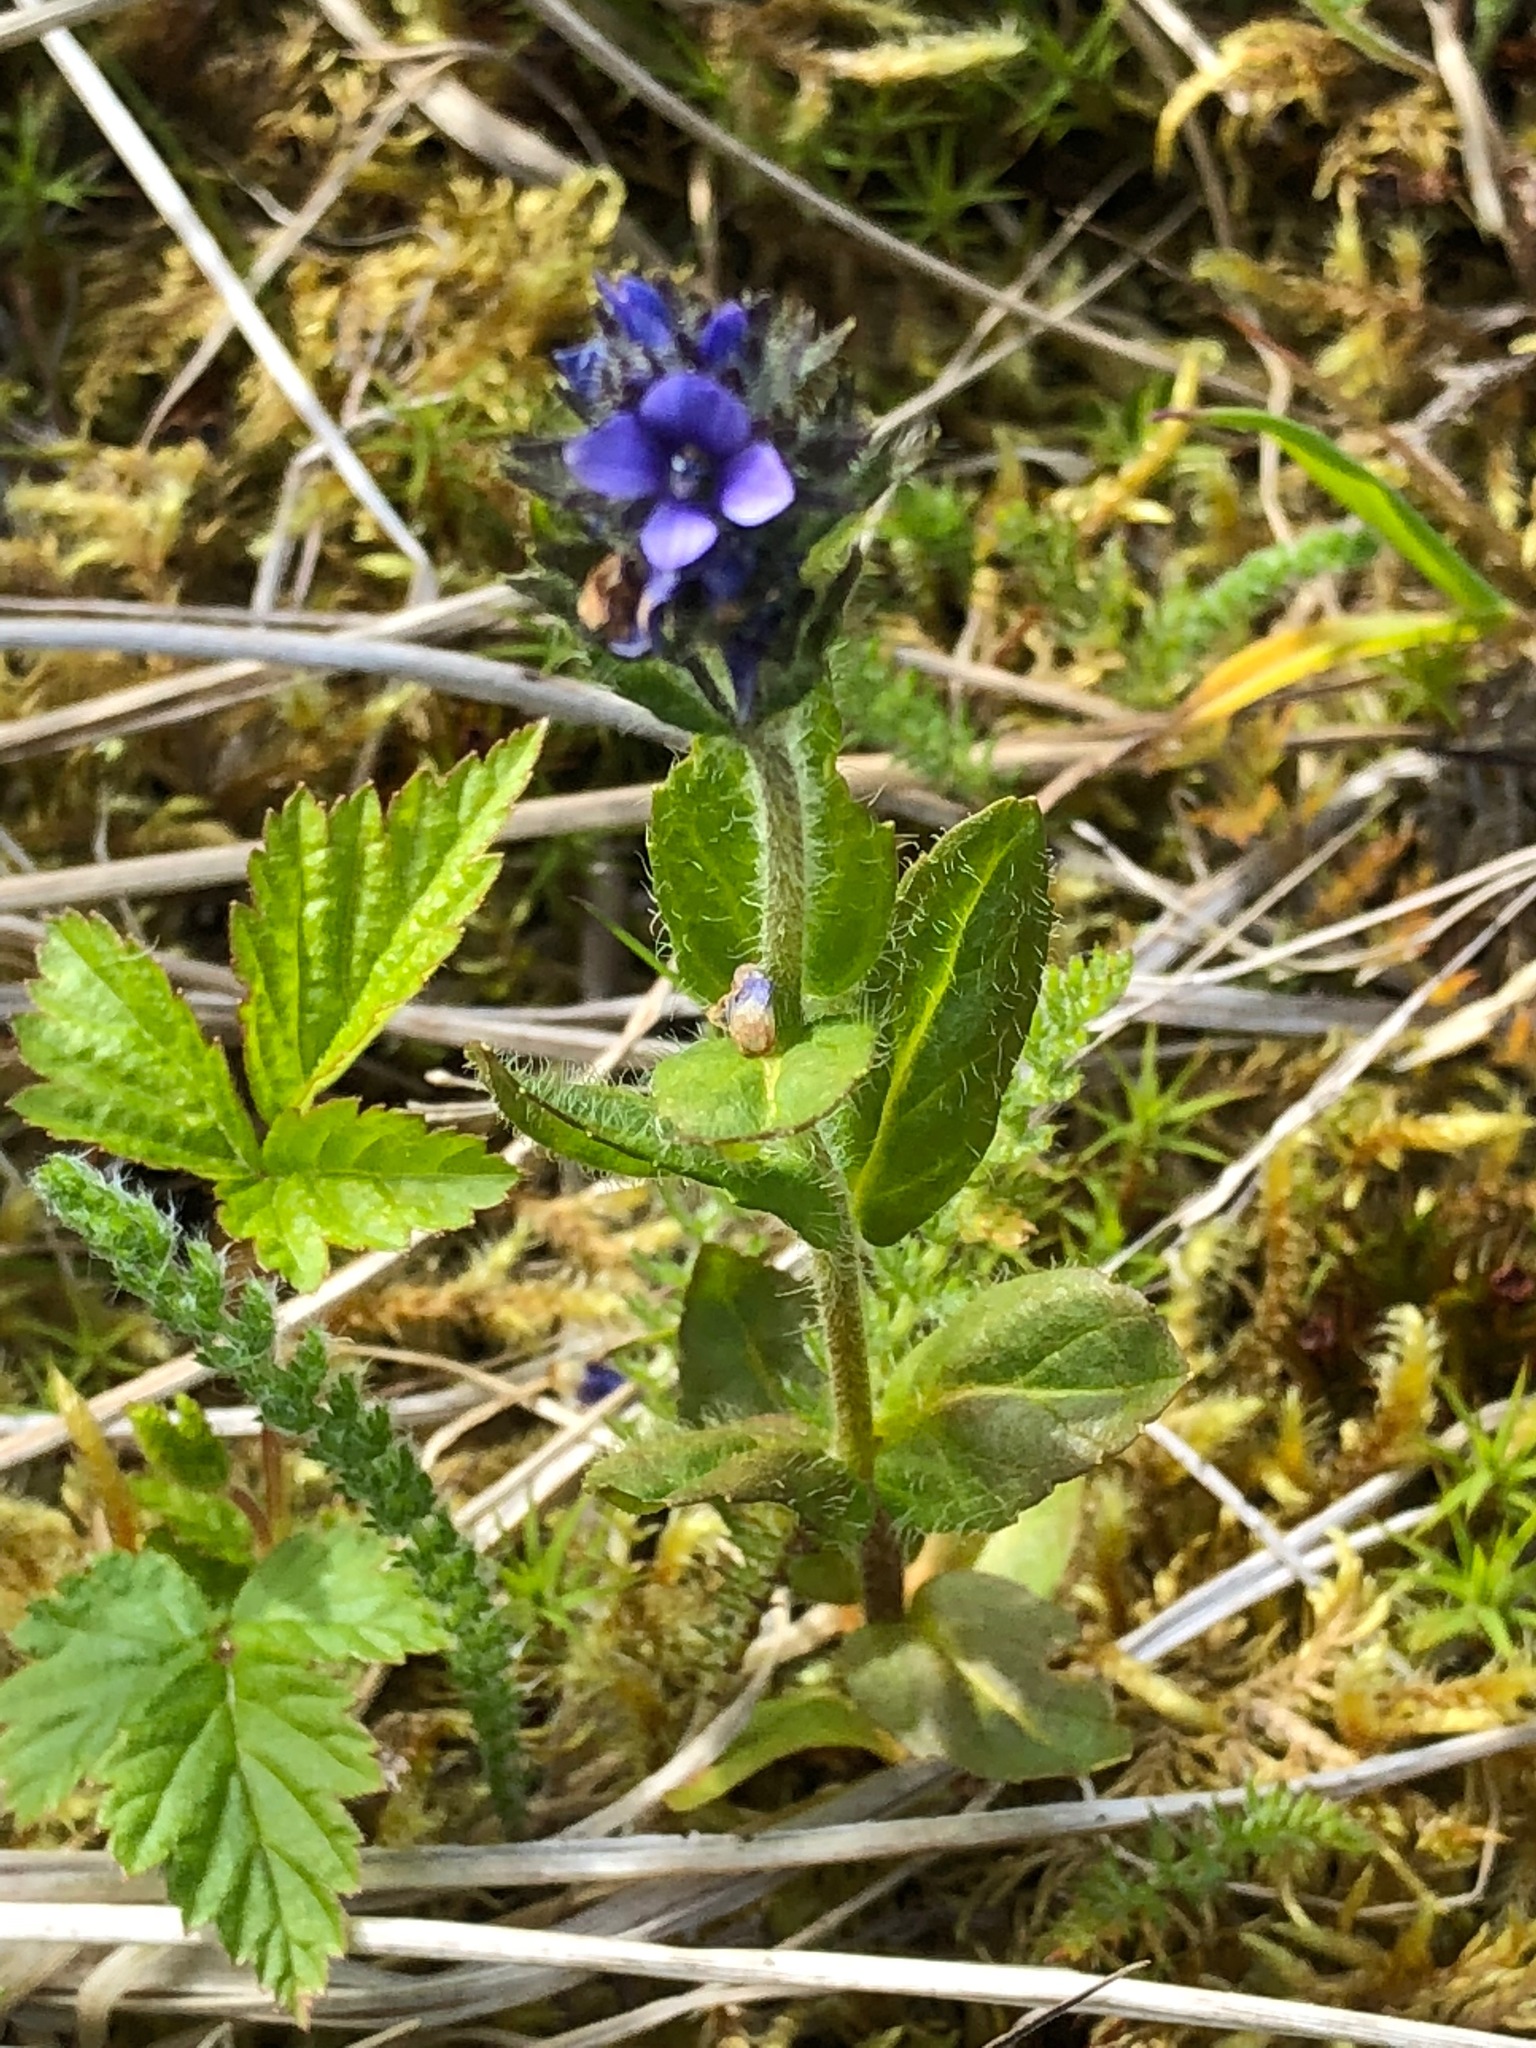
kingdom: Plantae
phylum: Tracheophyta
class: Magnoliopsida
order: Lamiales
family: Plantaginaceae
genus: Veronica
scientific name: Veronica wormskjoldii
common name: American alpine speedwell
